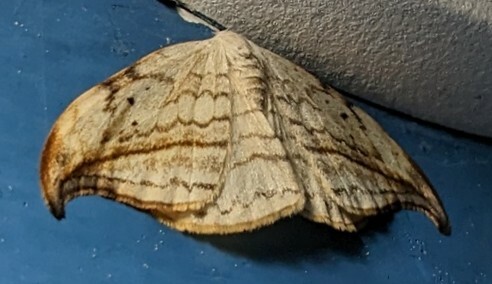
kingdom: Animalia
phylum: Arthropoda
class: Insecta
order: Lepidoptera
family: Drepanidae
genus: Drepana
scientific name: Drepana arcuata
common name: Arched hooktip moth
